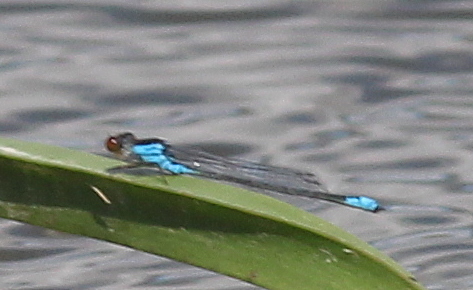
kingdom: Animalia
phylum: Arthropoda
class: Insecta
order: Odonata
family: Coenagrionidae
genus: Erythromma
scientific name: Erythromma viridulum
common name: Small red-eyed damselfly
